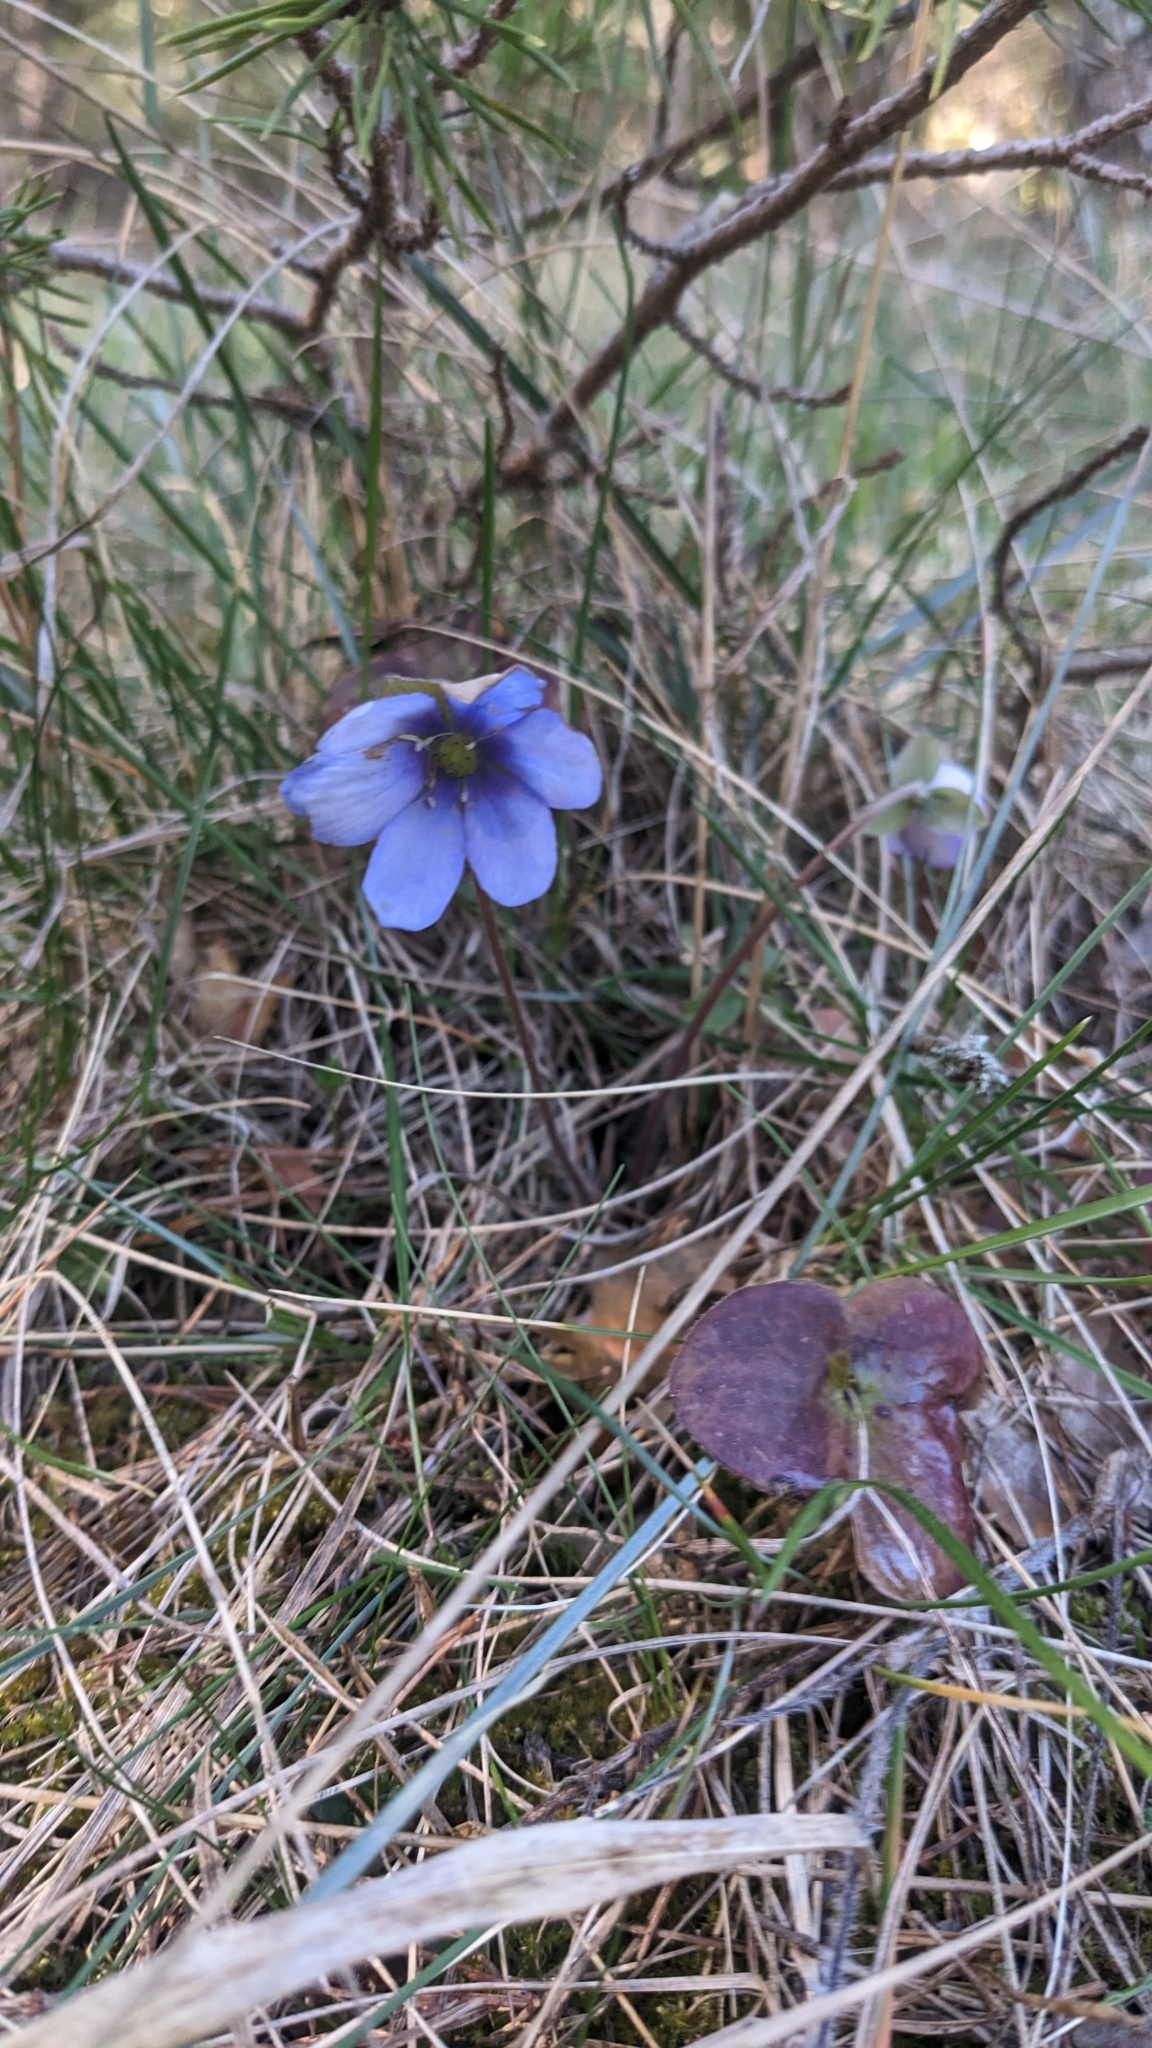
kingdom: Plantae
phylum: Tracheophyta
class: Magnoliopsida
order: Ranunculales
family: Ranunculaceae
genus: Hepatica
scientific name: Hepatica nobilis
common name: Liverleaf
